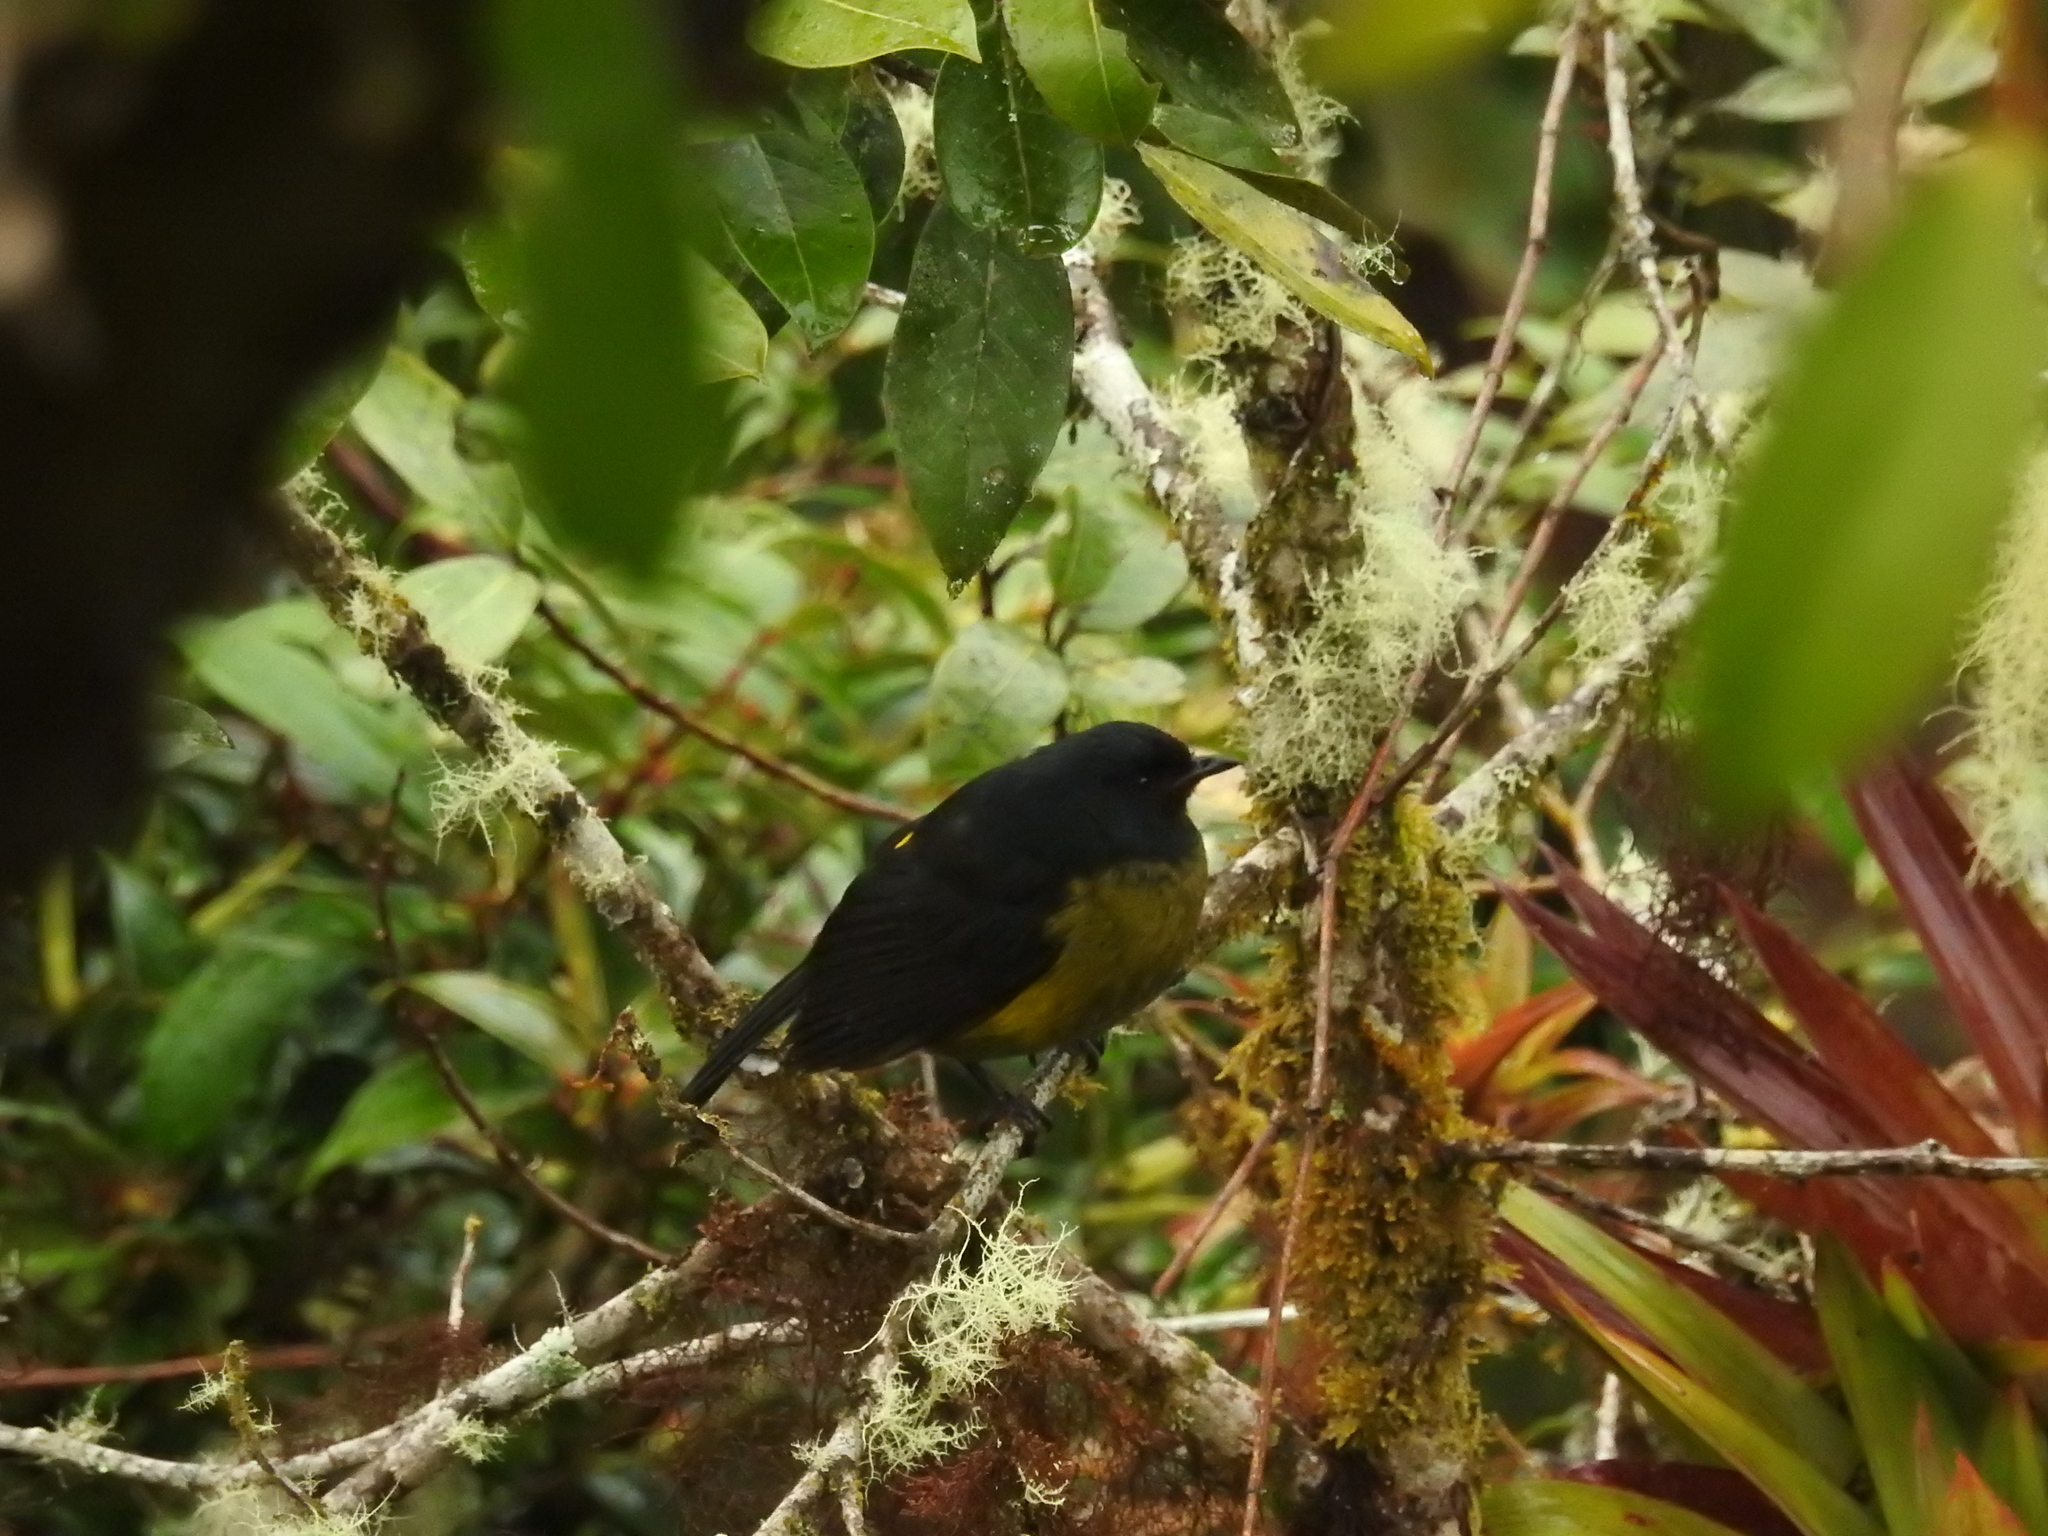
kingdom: Animalia
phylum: Chordata
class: Aves
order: Passeriformes
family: Ptilogonatidae
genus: Phainoptila
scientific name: Phainoptila melanoxantha
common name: Black-and-yellow phainoptila
